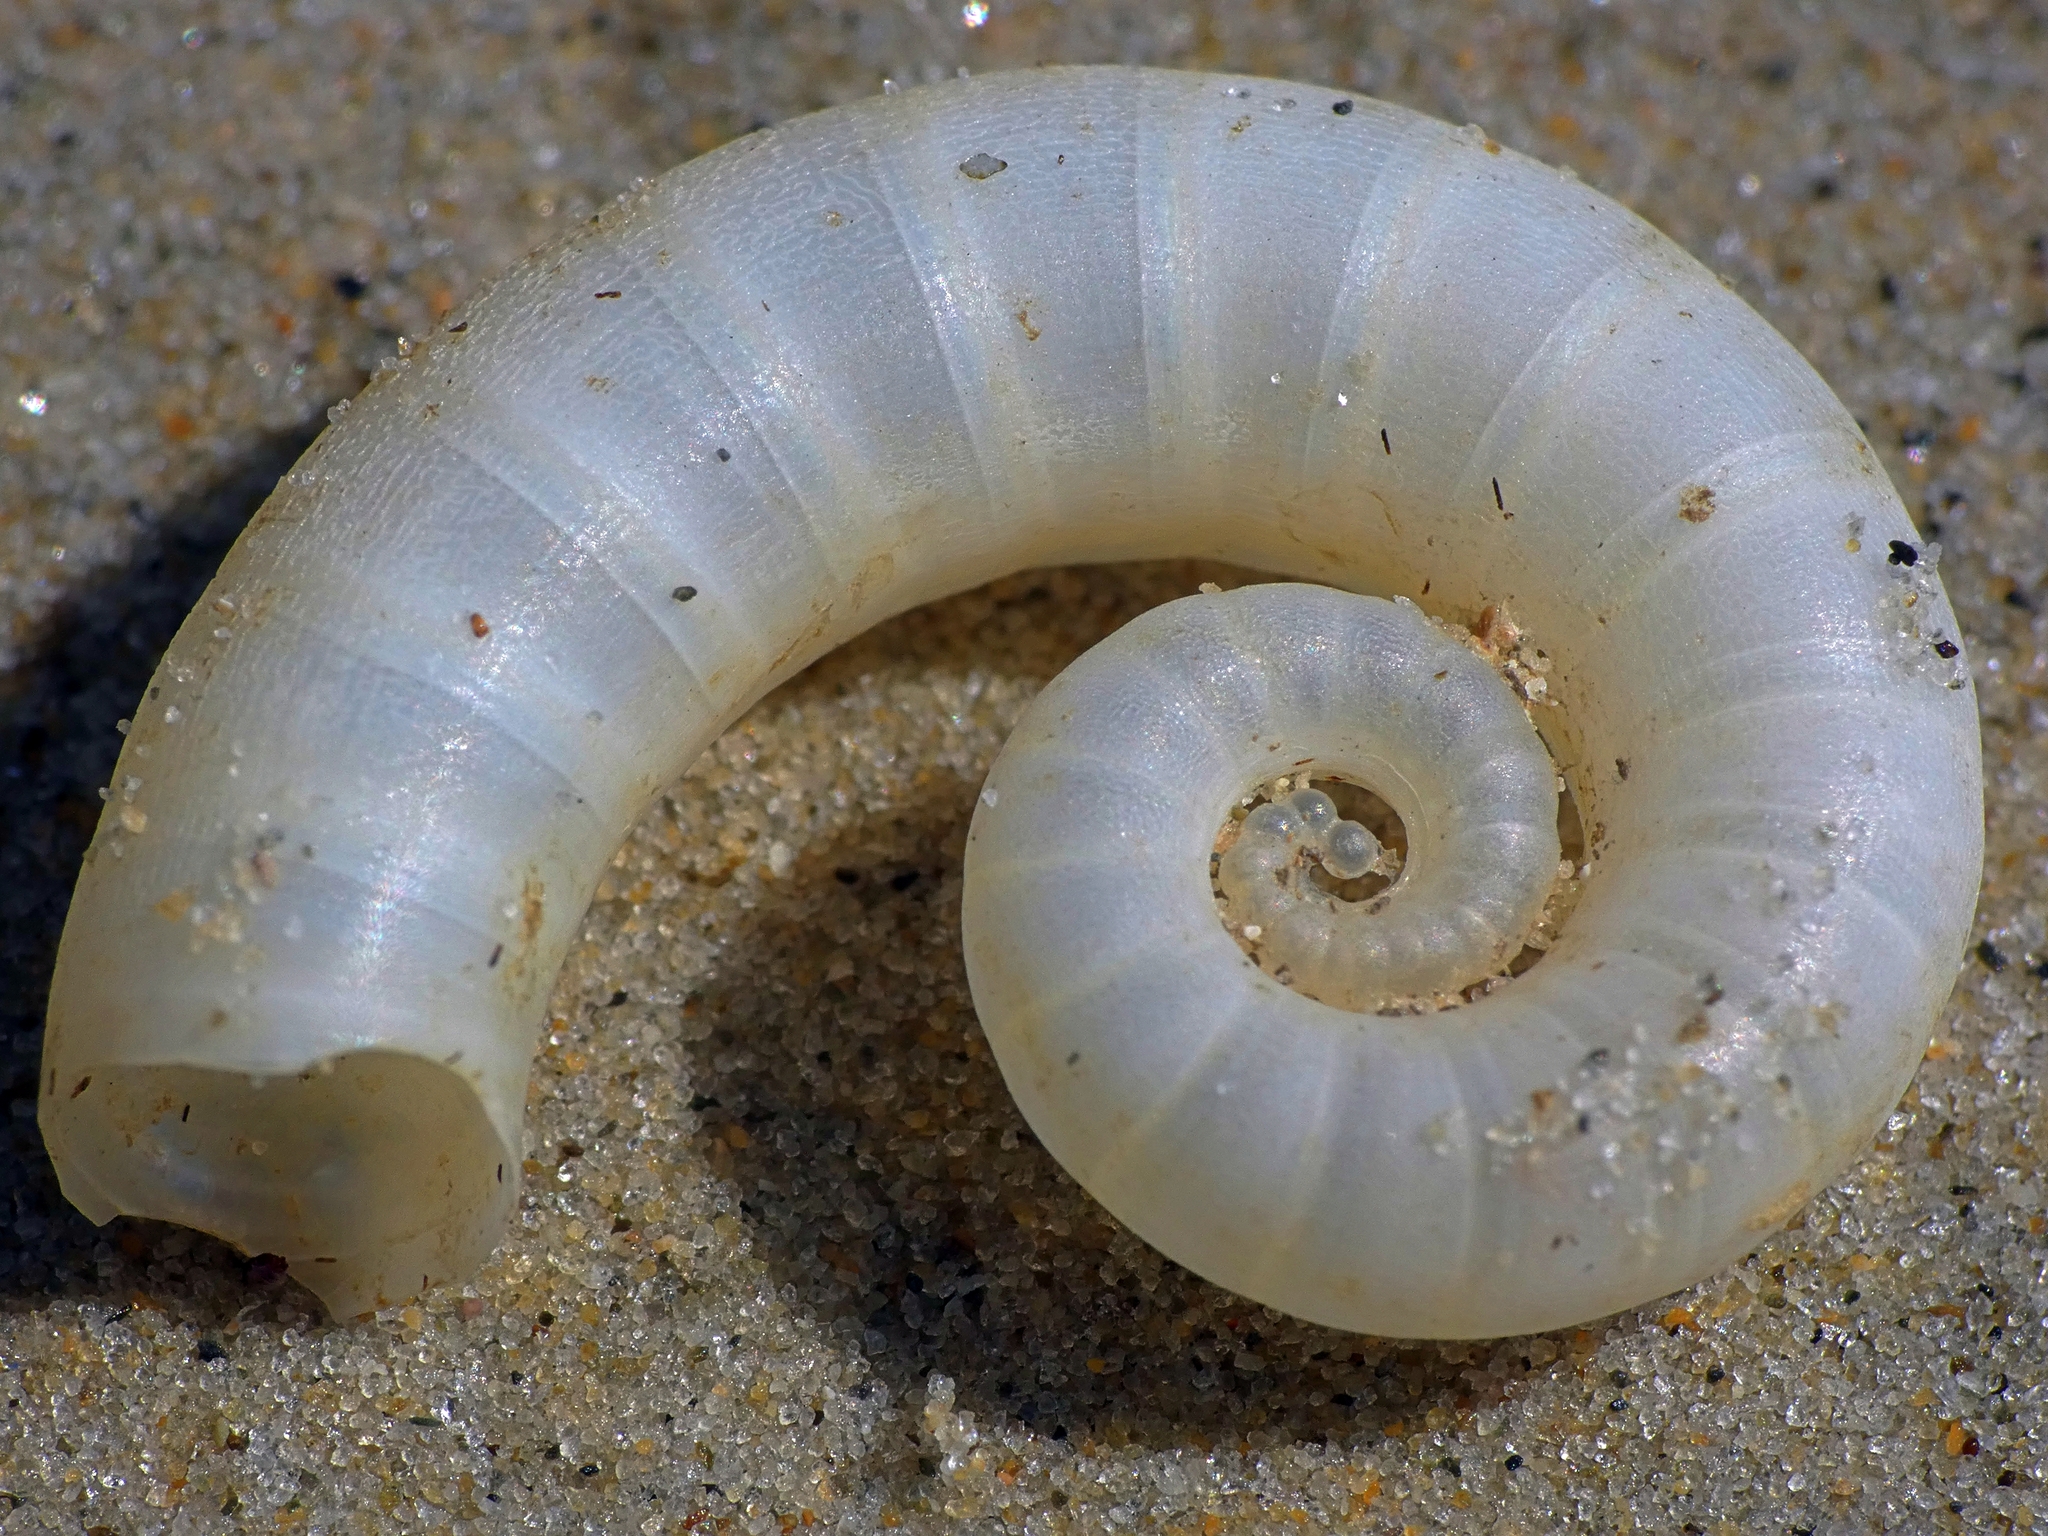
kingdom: Animalia
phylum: Mollusca
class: Cephalopoda
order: Spirulida
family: Spirulidae
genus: Spirula
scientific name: Spirula spirula
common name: Ram's horn squid
